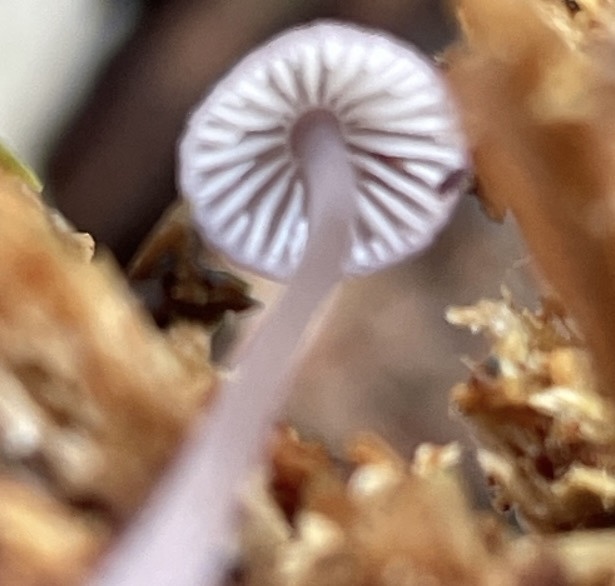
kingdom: Fungi
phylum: Basidiomycota
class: Agaricomycetes
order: Agaricales
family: Mycenaceae
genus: Mycena
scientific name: Mycena purpureofusca
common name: Purple edge bonnet
